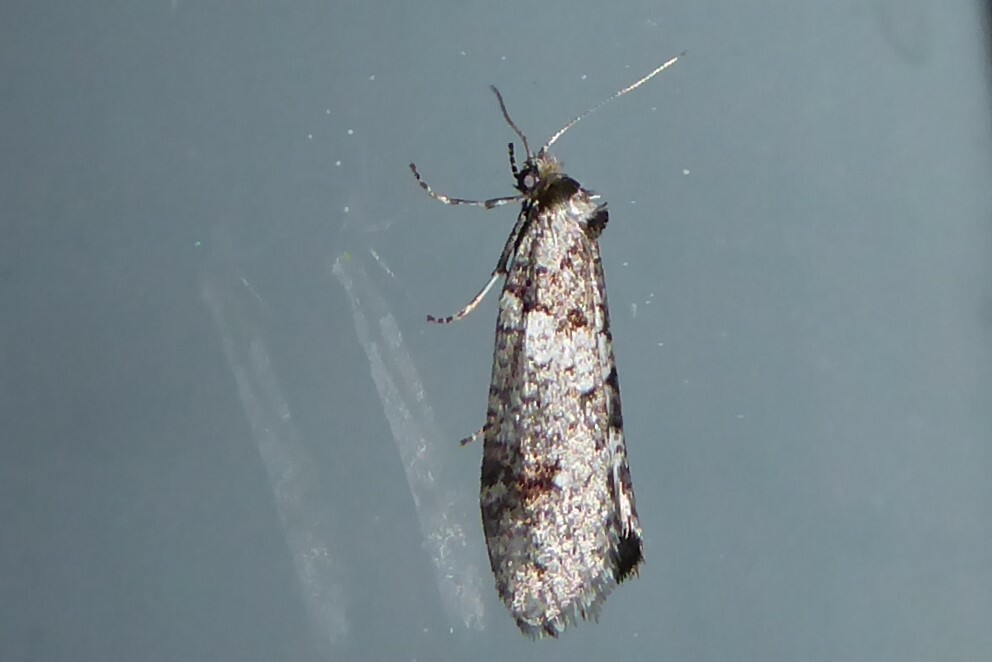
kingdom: Animalia
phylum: Arthropoda
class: Insecta
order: Lepidoptera
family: Psychidae
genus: Lepidoscia
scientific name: Lepidoscia heliochares
